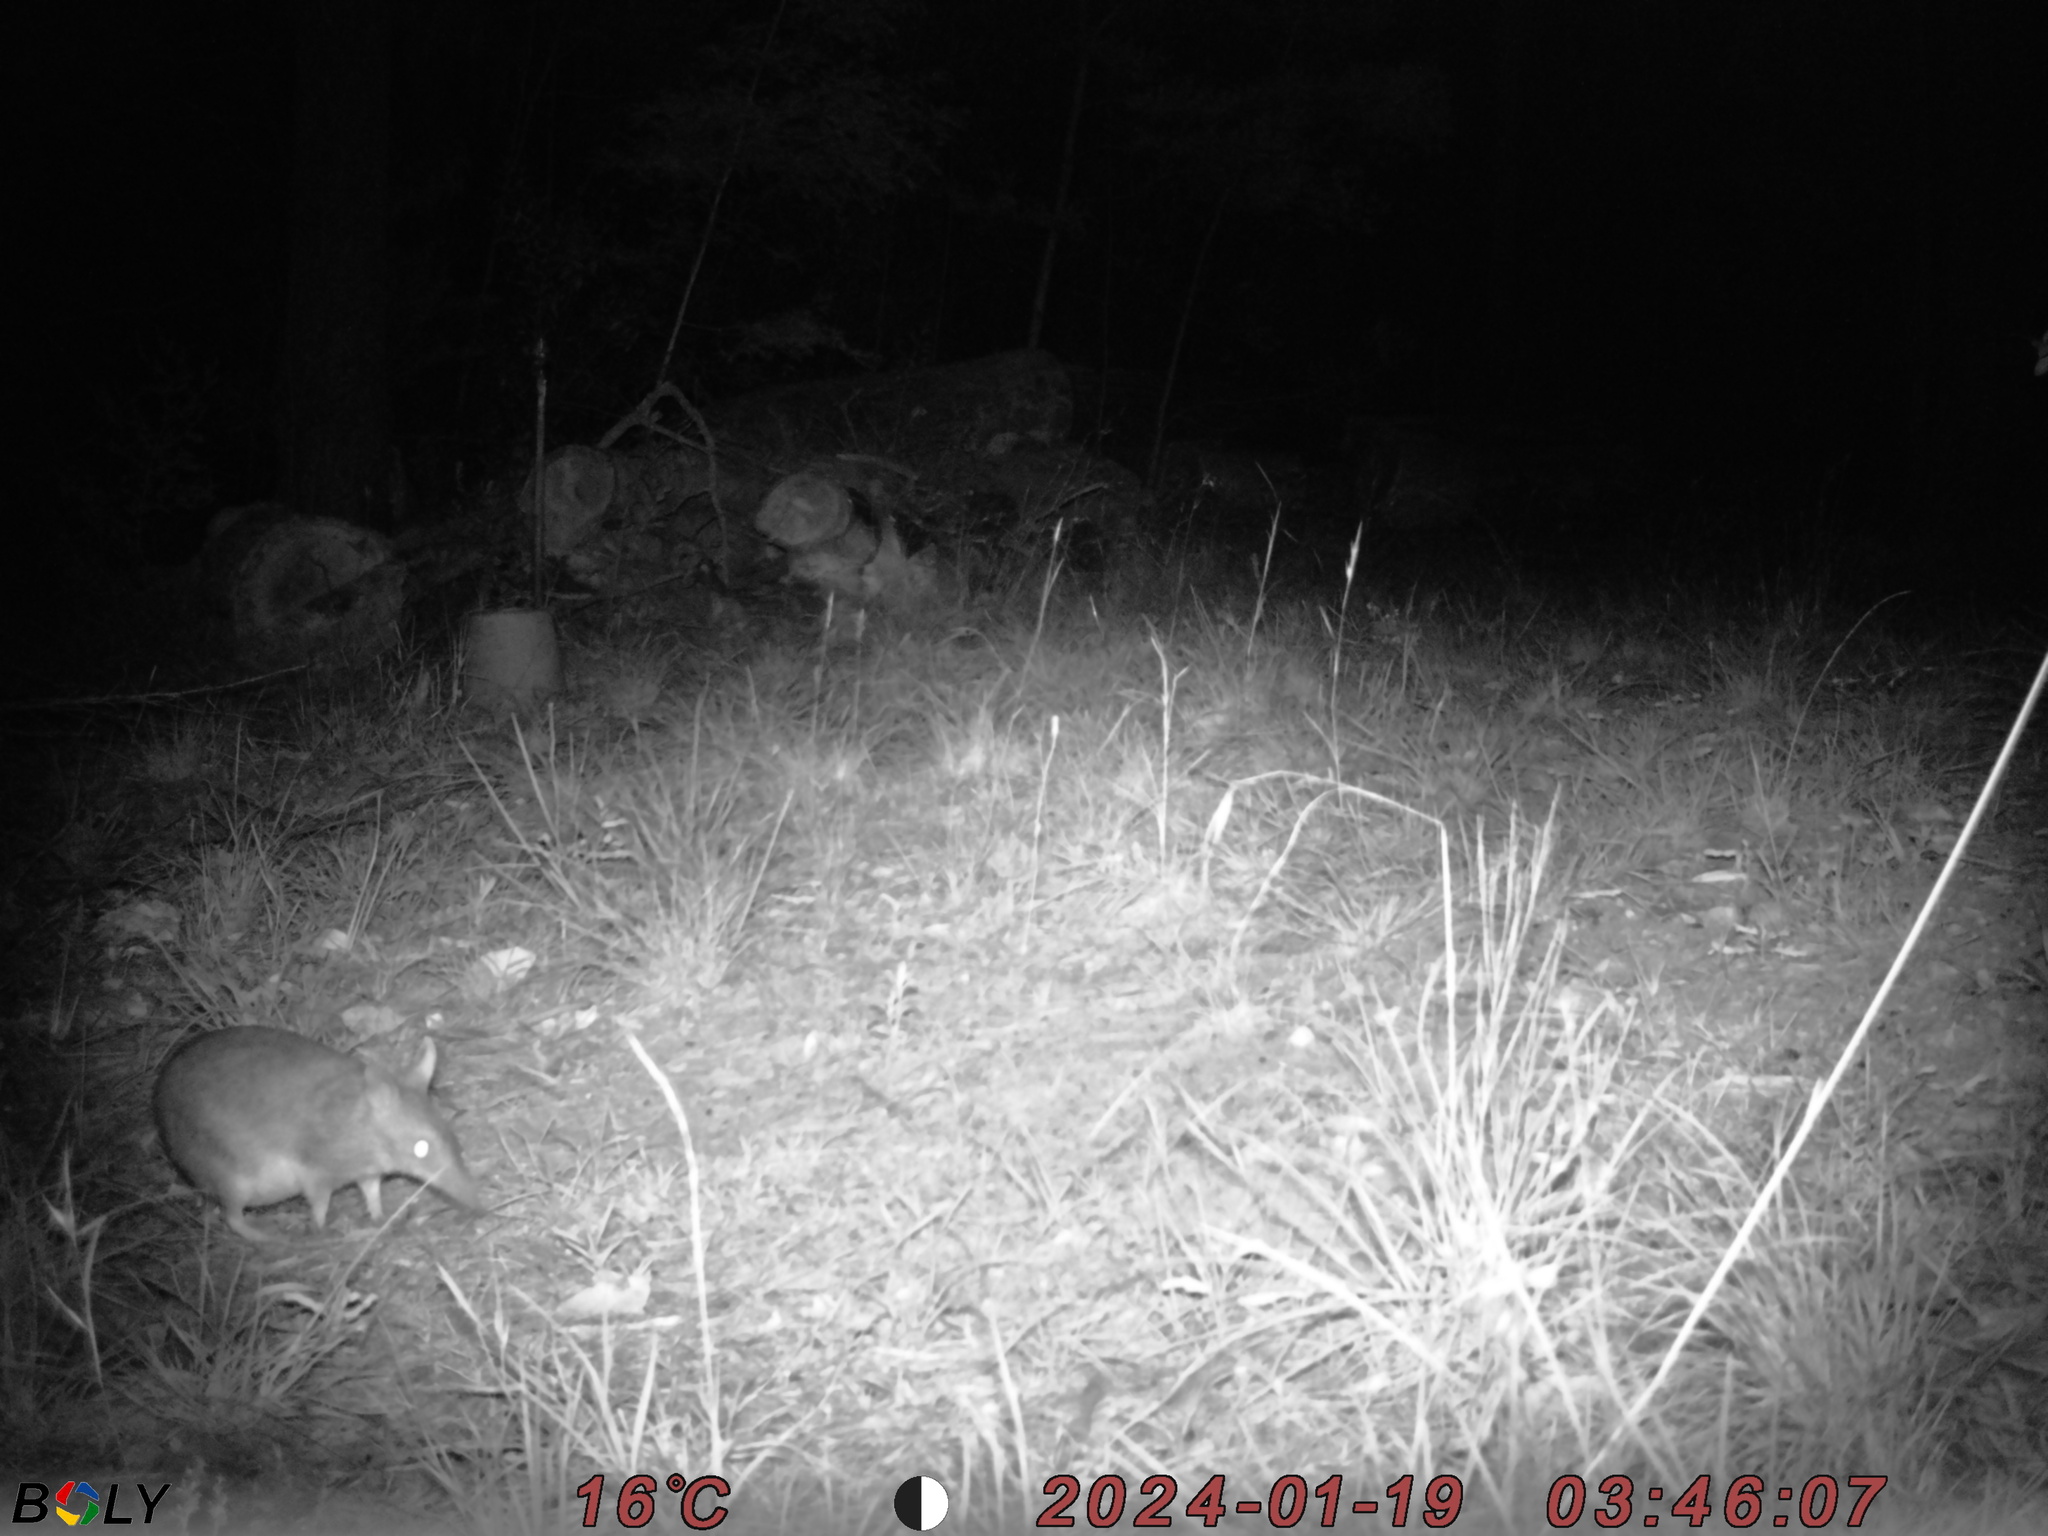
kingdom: Animalia
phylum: Chordata
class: Mammalia
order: Peramelemorphia
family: Peramelidae
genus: Perameles
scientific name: Perameles nasuta
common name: Long-nosed bandicoot
